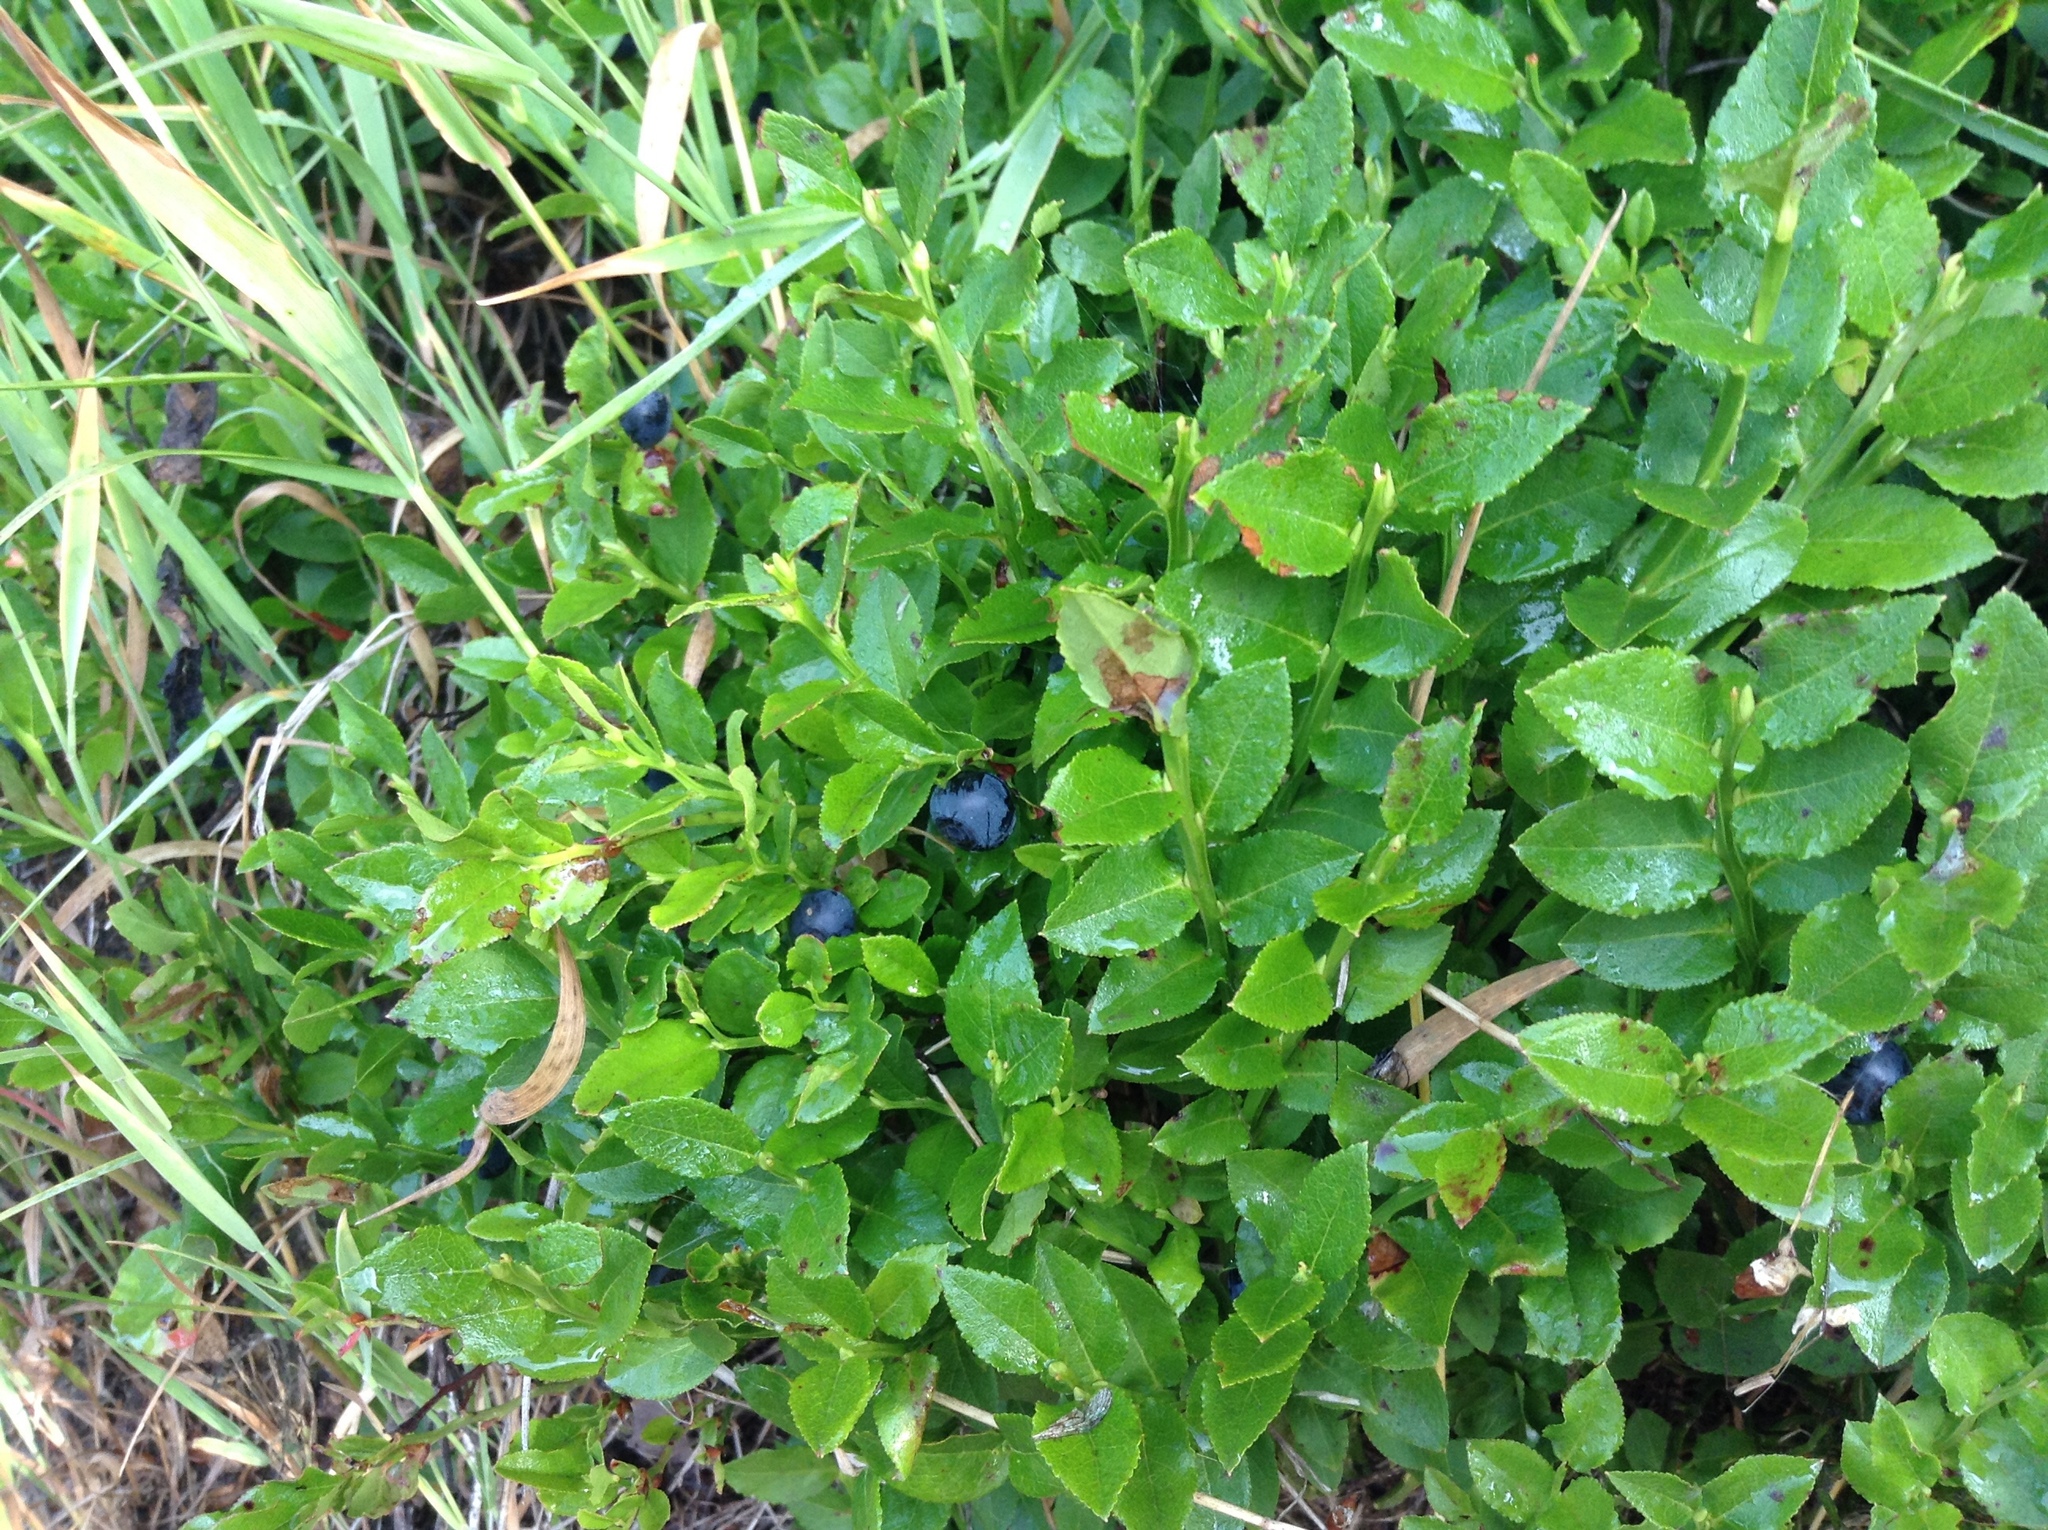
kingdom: Plantae
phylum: Tracheophyta
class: Magnoliopsida
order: Ericales
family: Ericaceae
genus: Vaccinium
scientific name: Vaccinium myrtillus
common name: Bilberry
